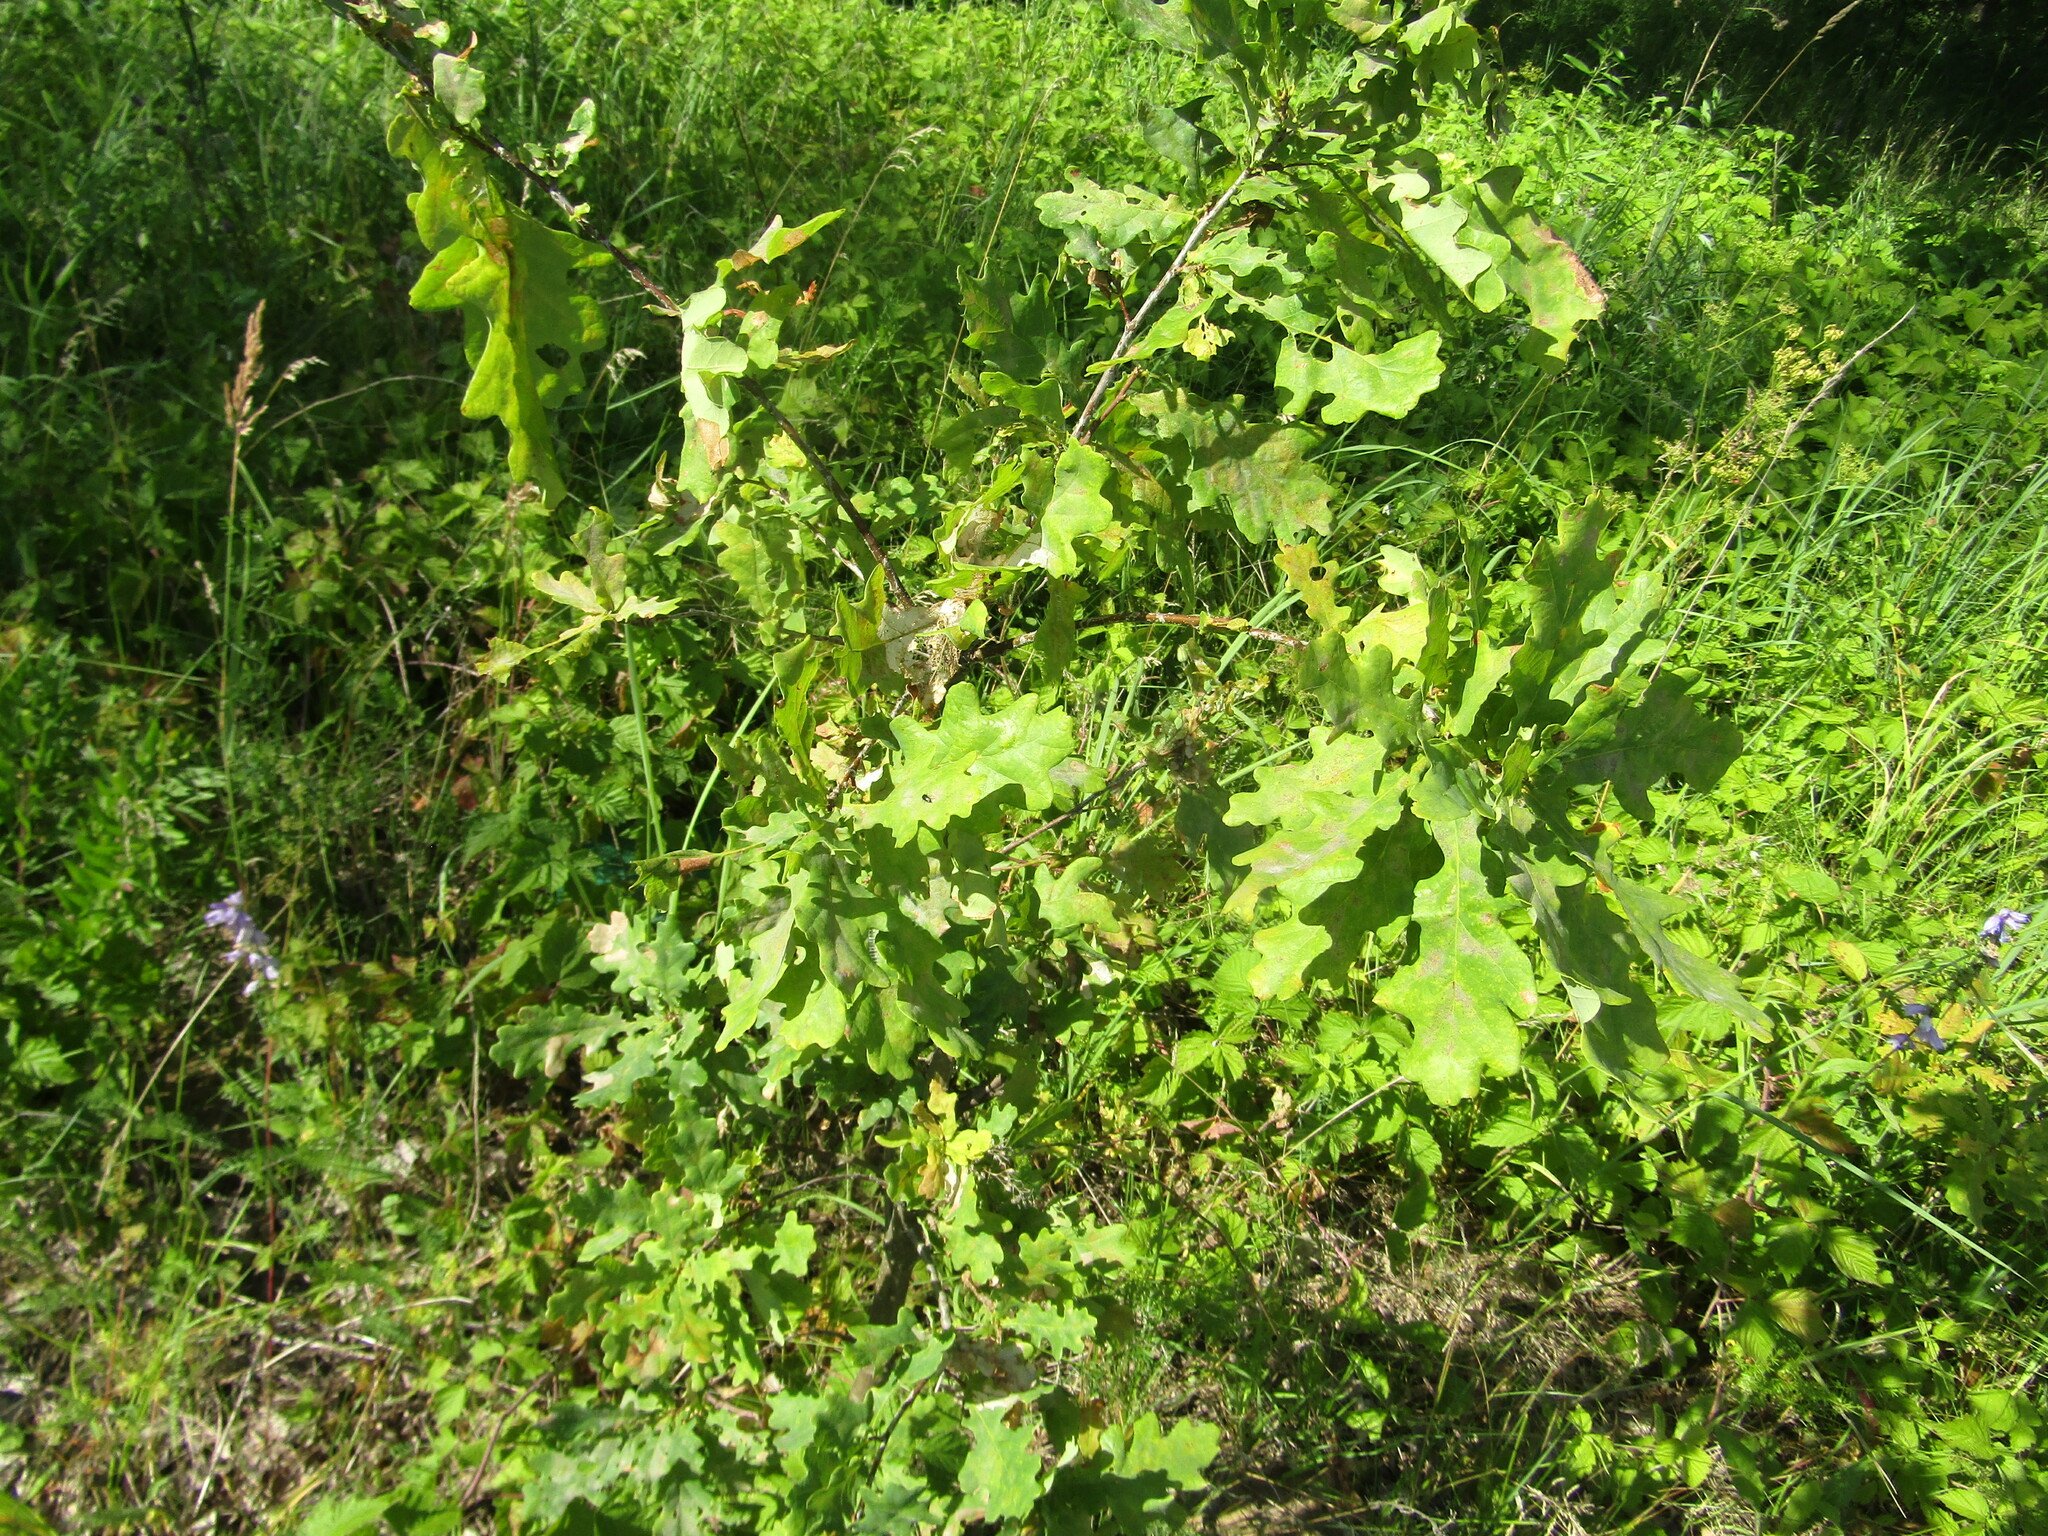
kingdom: Plantae
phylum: Tracheophyta
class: Magnoliopsida
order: Fagales
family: Fagaceae
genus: Quercus
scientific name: Quercus robur
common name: Pedunculate oak
